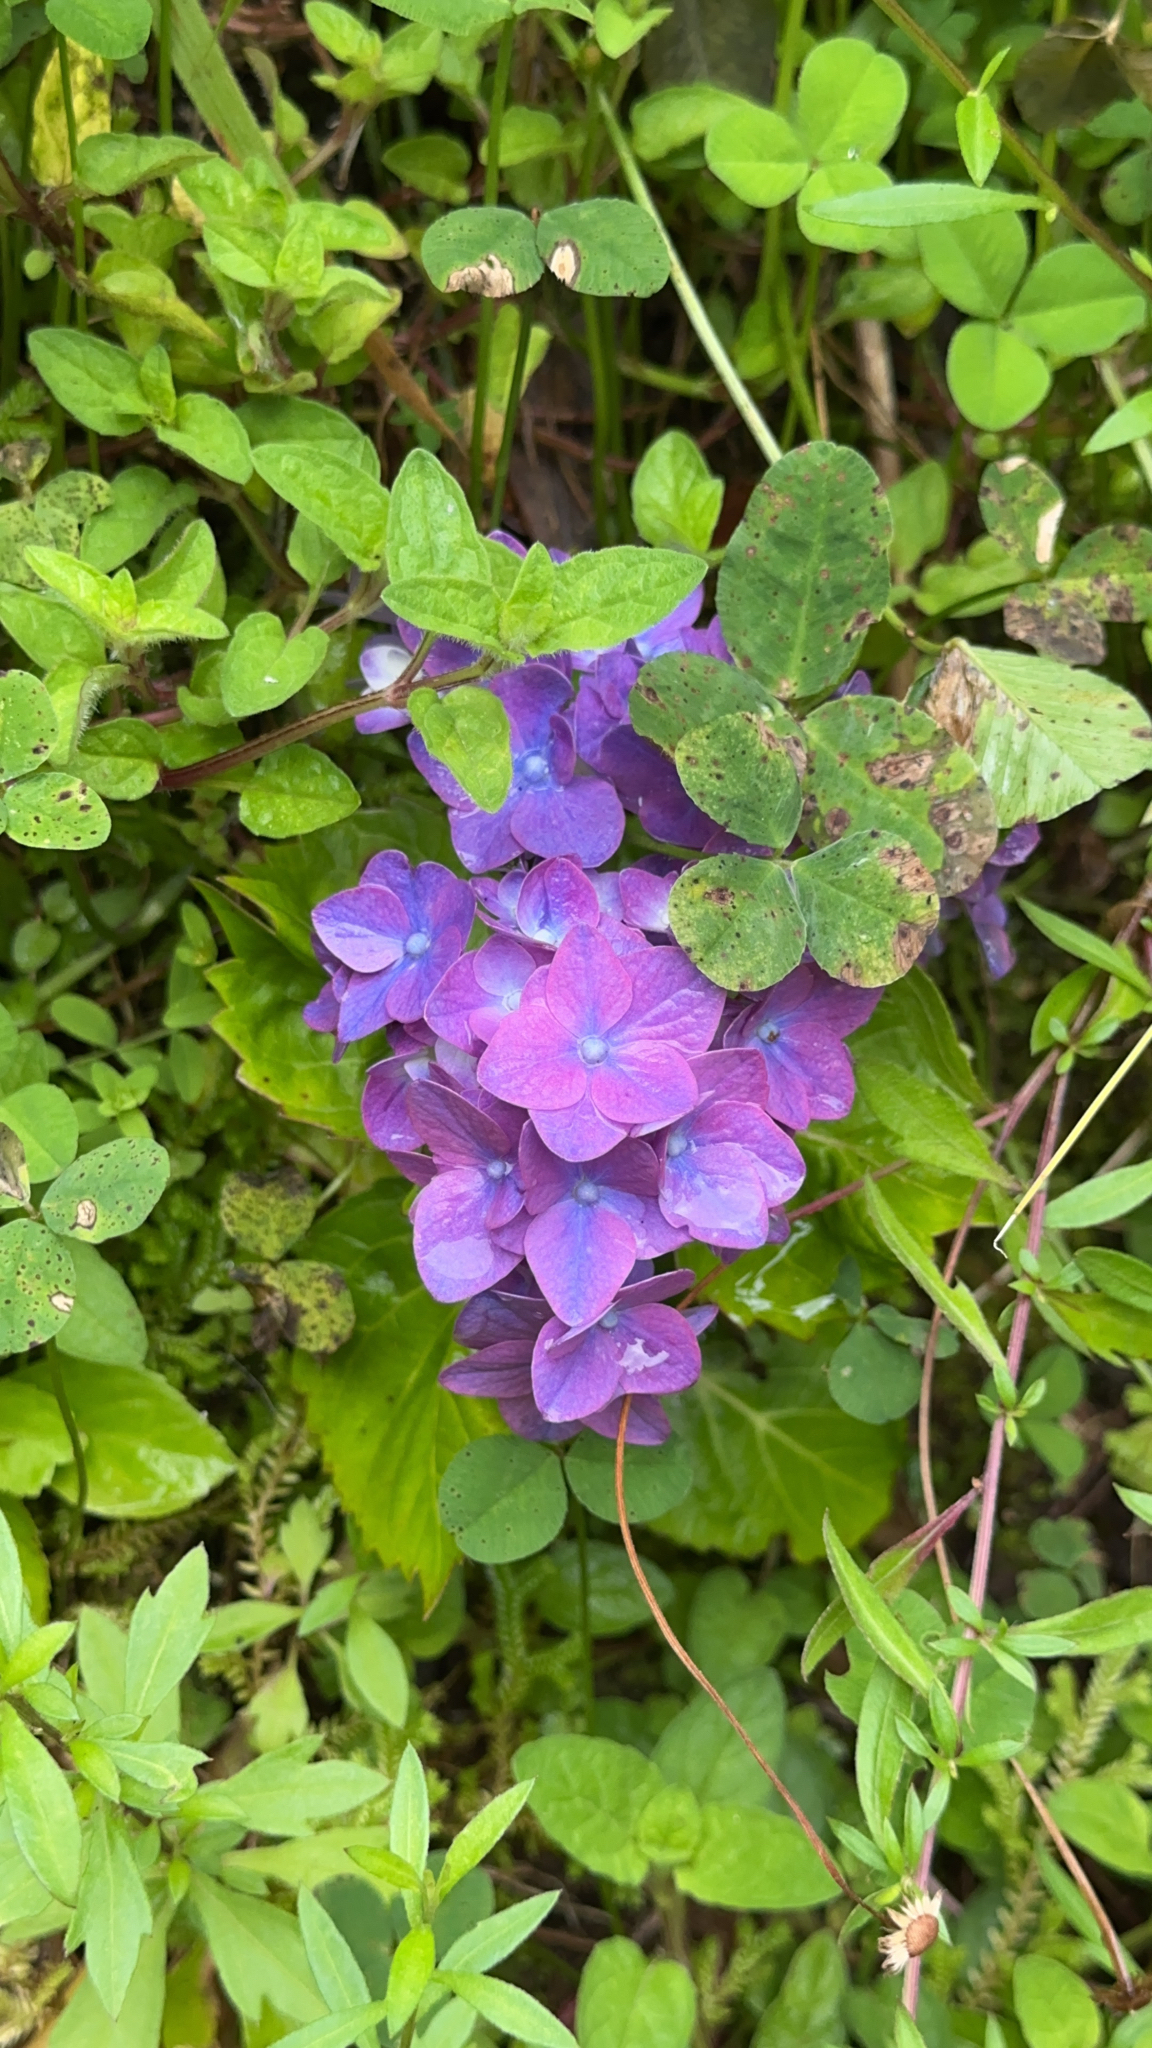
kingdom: Plantae
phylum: Tracheophyta
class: Magnoliopsida
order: Cornales
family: Hydrangeaceae
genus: Hydrangea
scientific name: Hydrangea macrophylla
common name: Hydrangea
